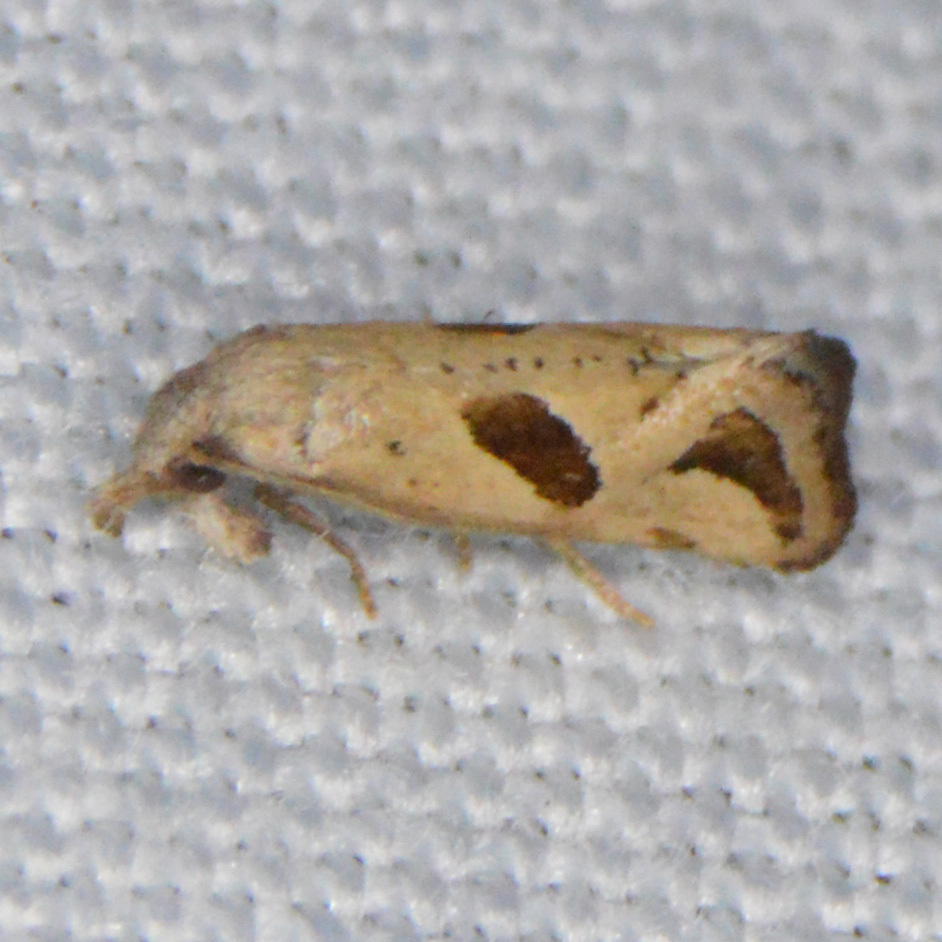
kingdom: Animalia
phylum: Arthropoda
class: Insecta
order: Lepidoptera
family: Tortricidae
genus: Eugnosta
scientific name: Eugnosta bimaculana
